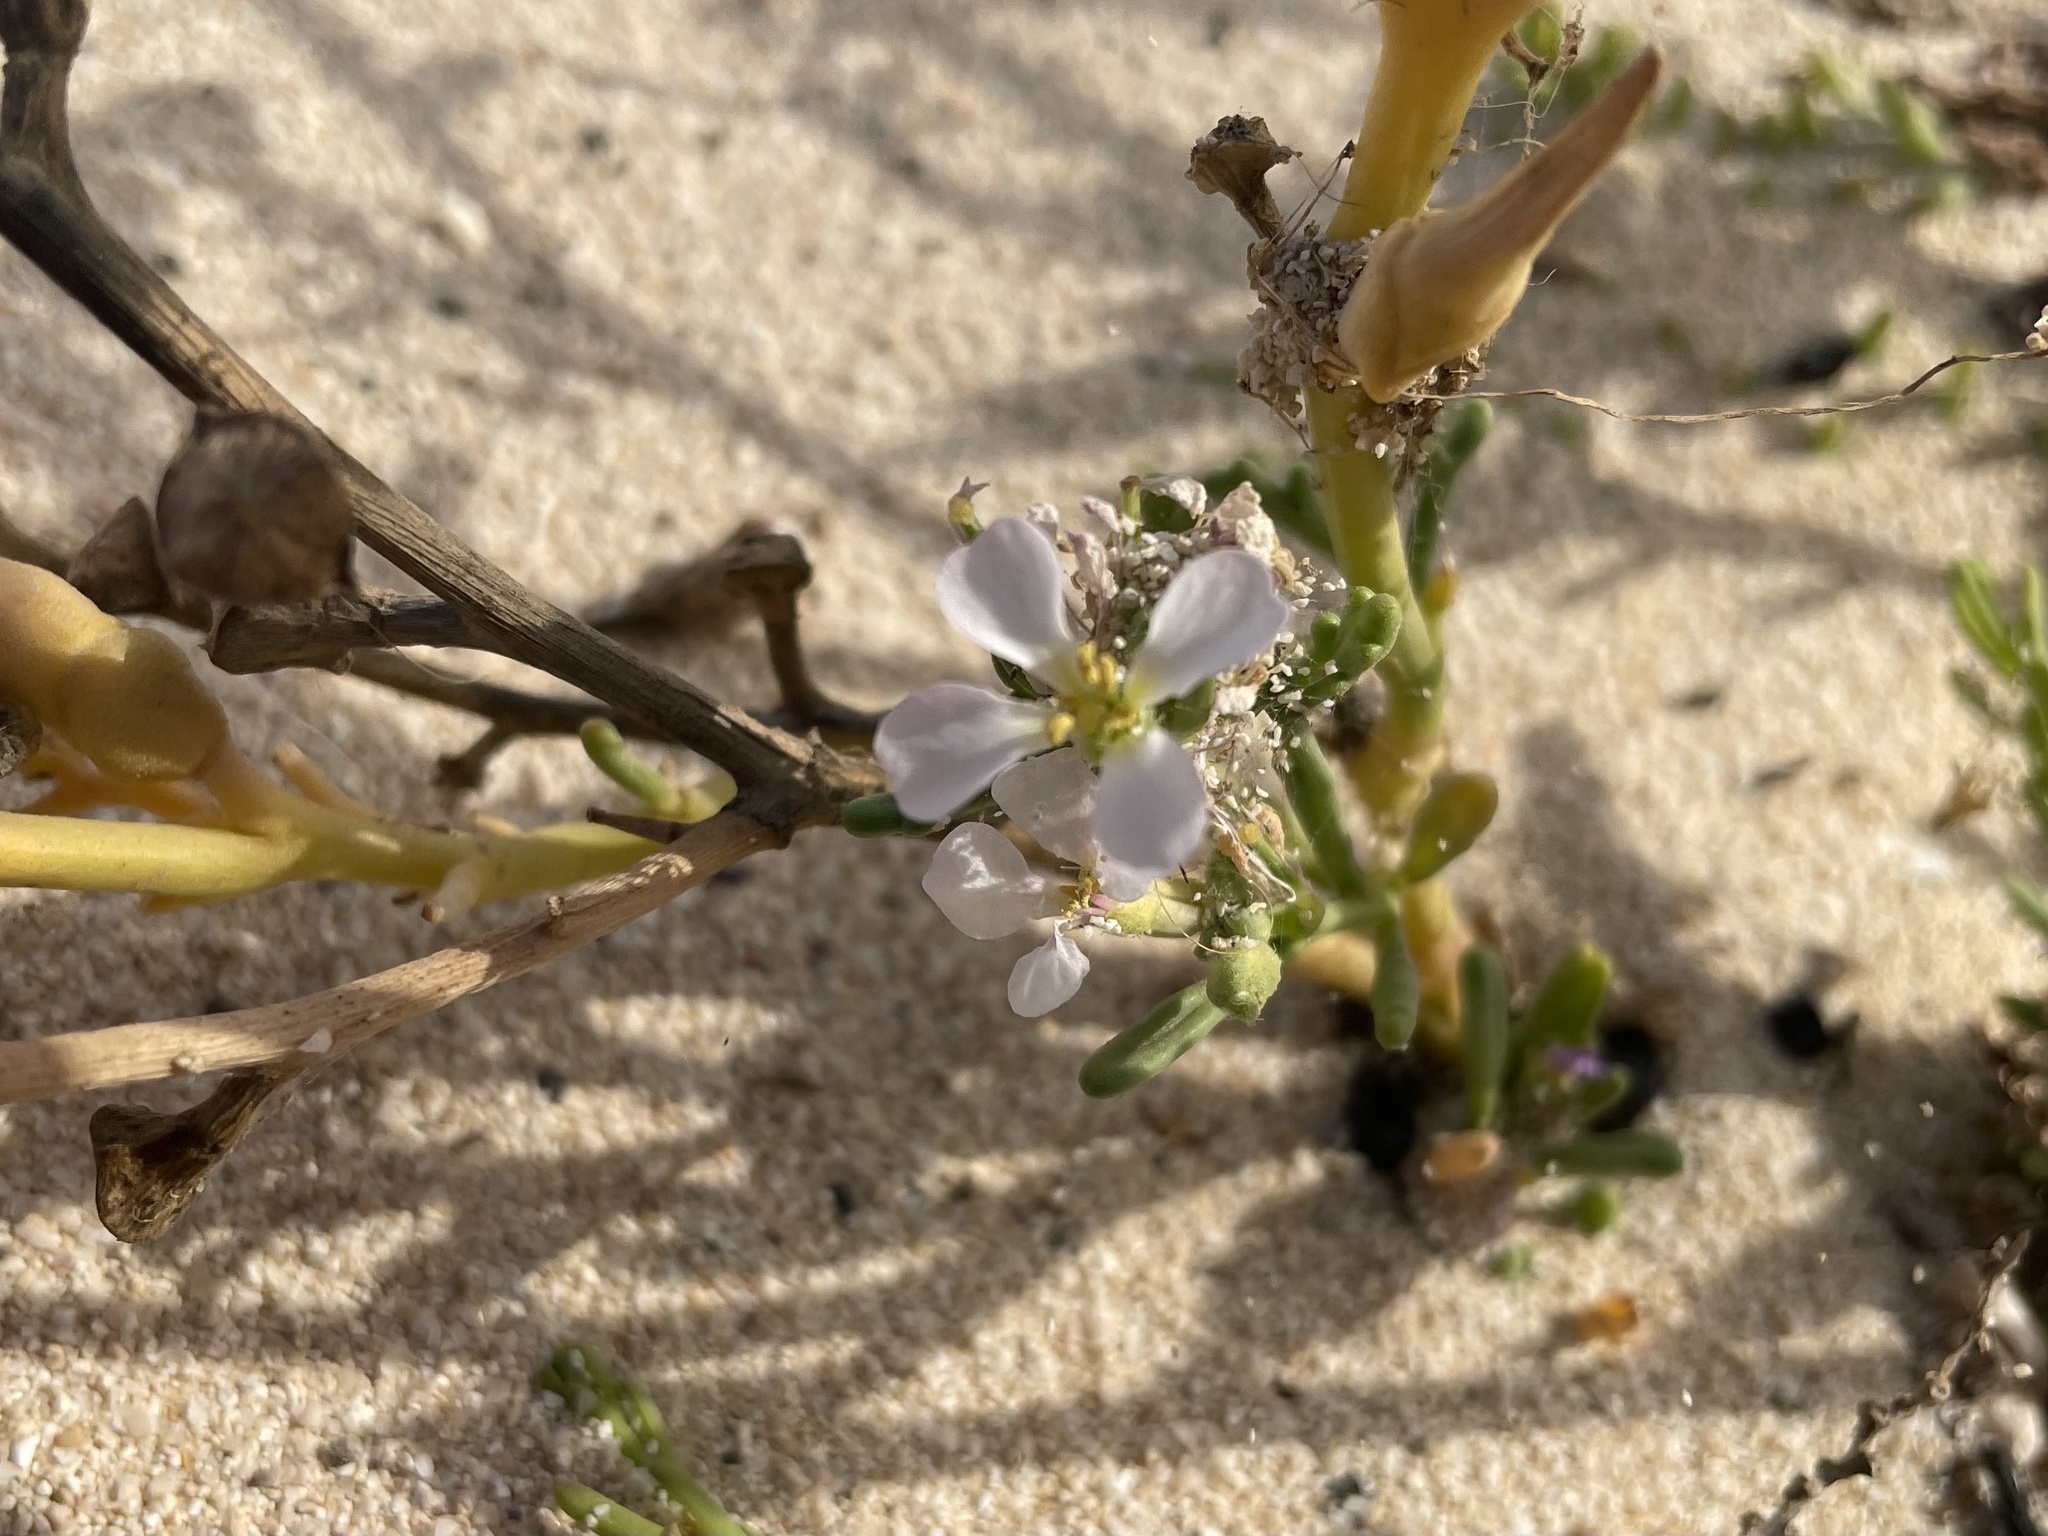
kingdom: Plantae
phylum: Tracheophyta
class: Magnoliopsida
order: Brassicales
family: Brassicaceae
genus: Cakile
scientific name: Cakile maritima
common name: Sea rocket
